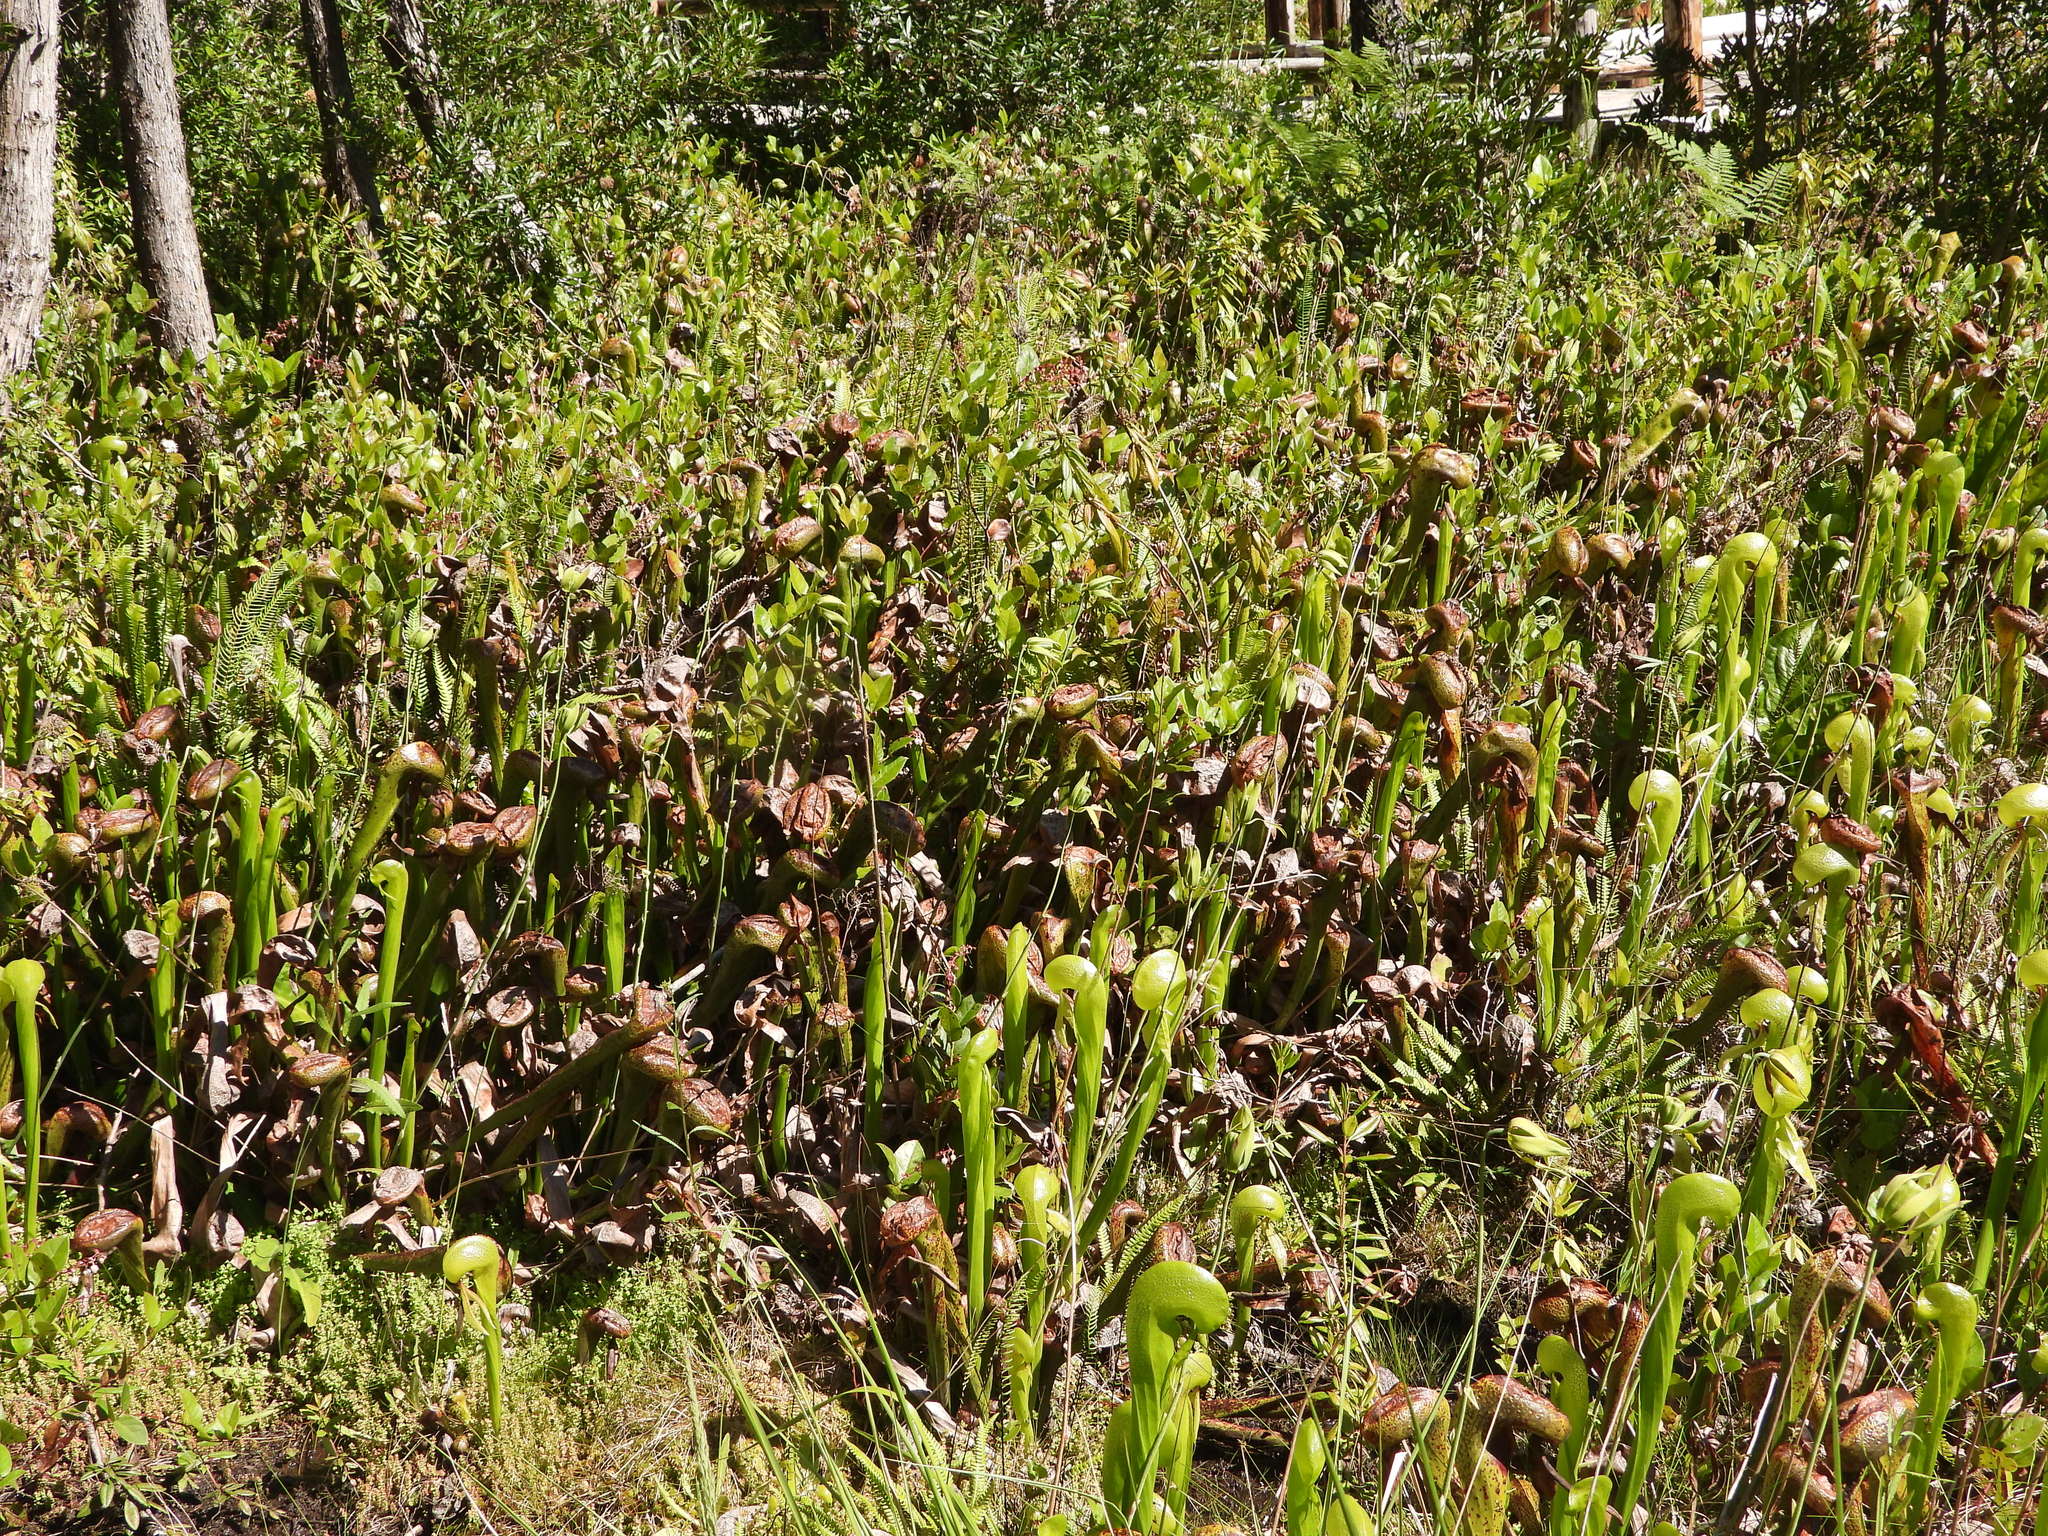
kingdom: Plantae
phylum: Tracheophyta
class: Magnoliopsida
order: Ericales
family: Sarraceniaceae
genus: Darlingtonia
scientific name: Darlingtonia californica
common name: California pitcher plant
